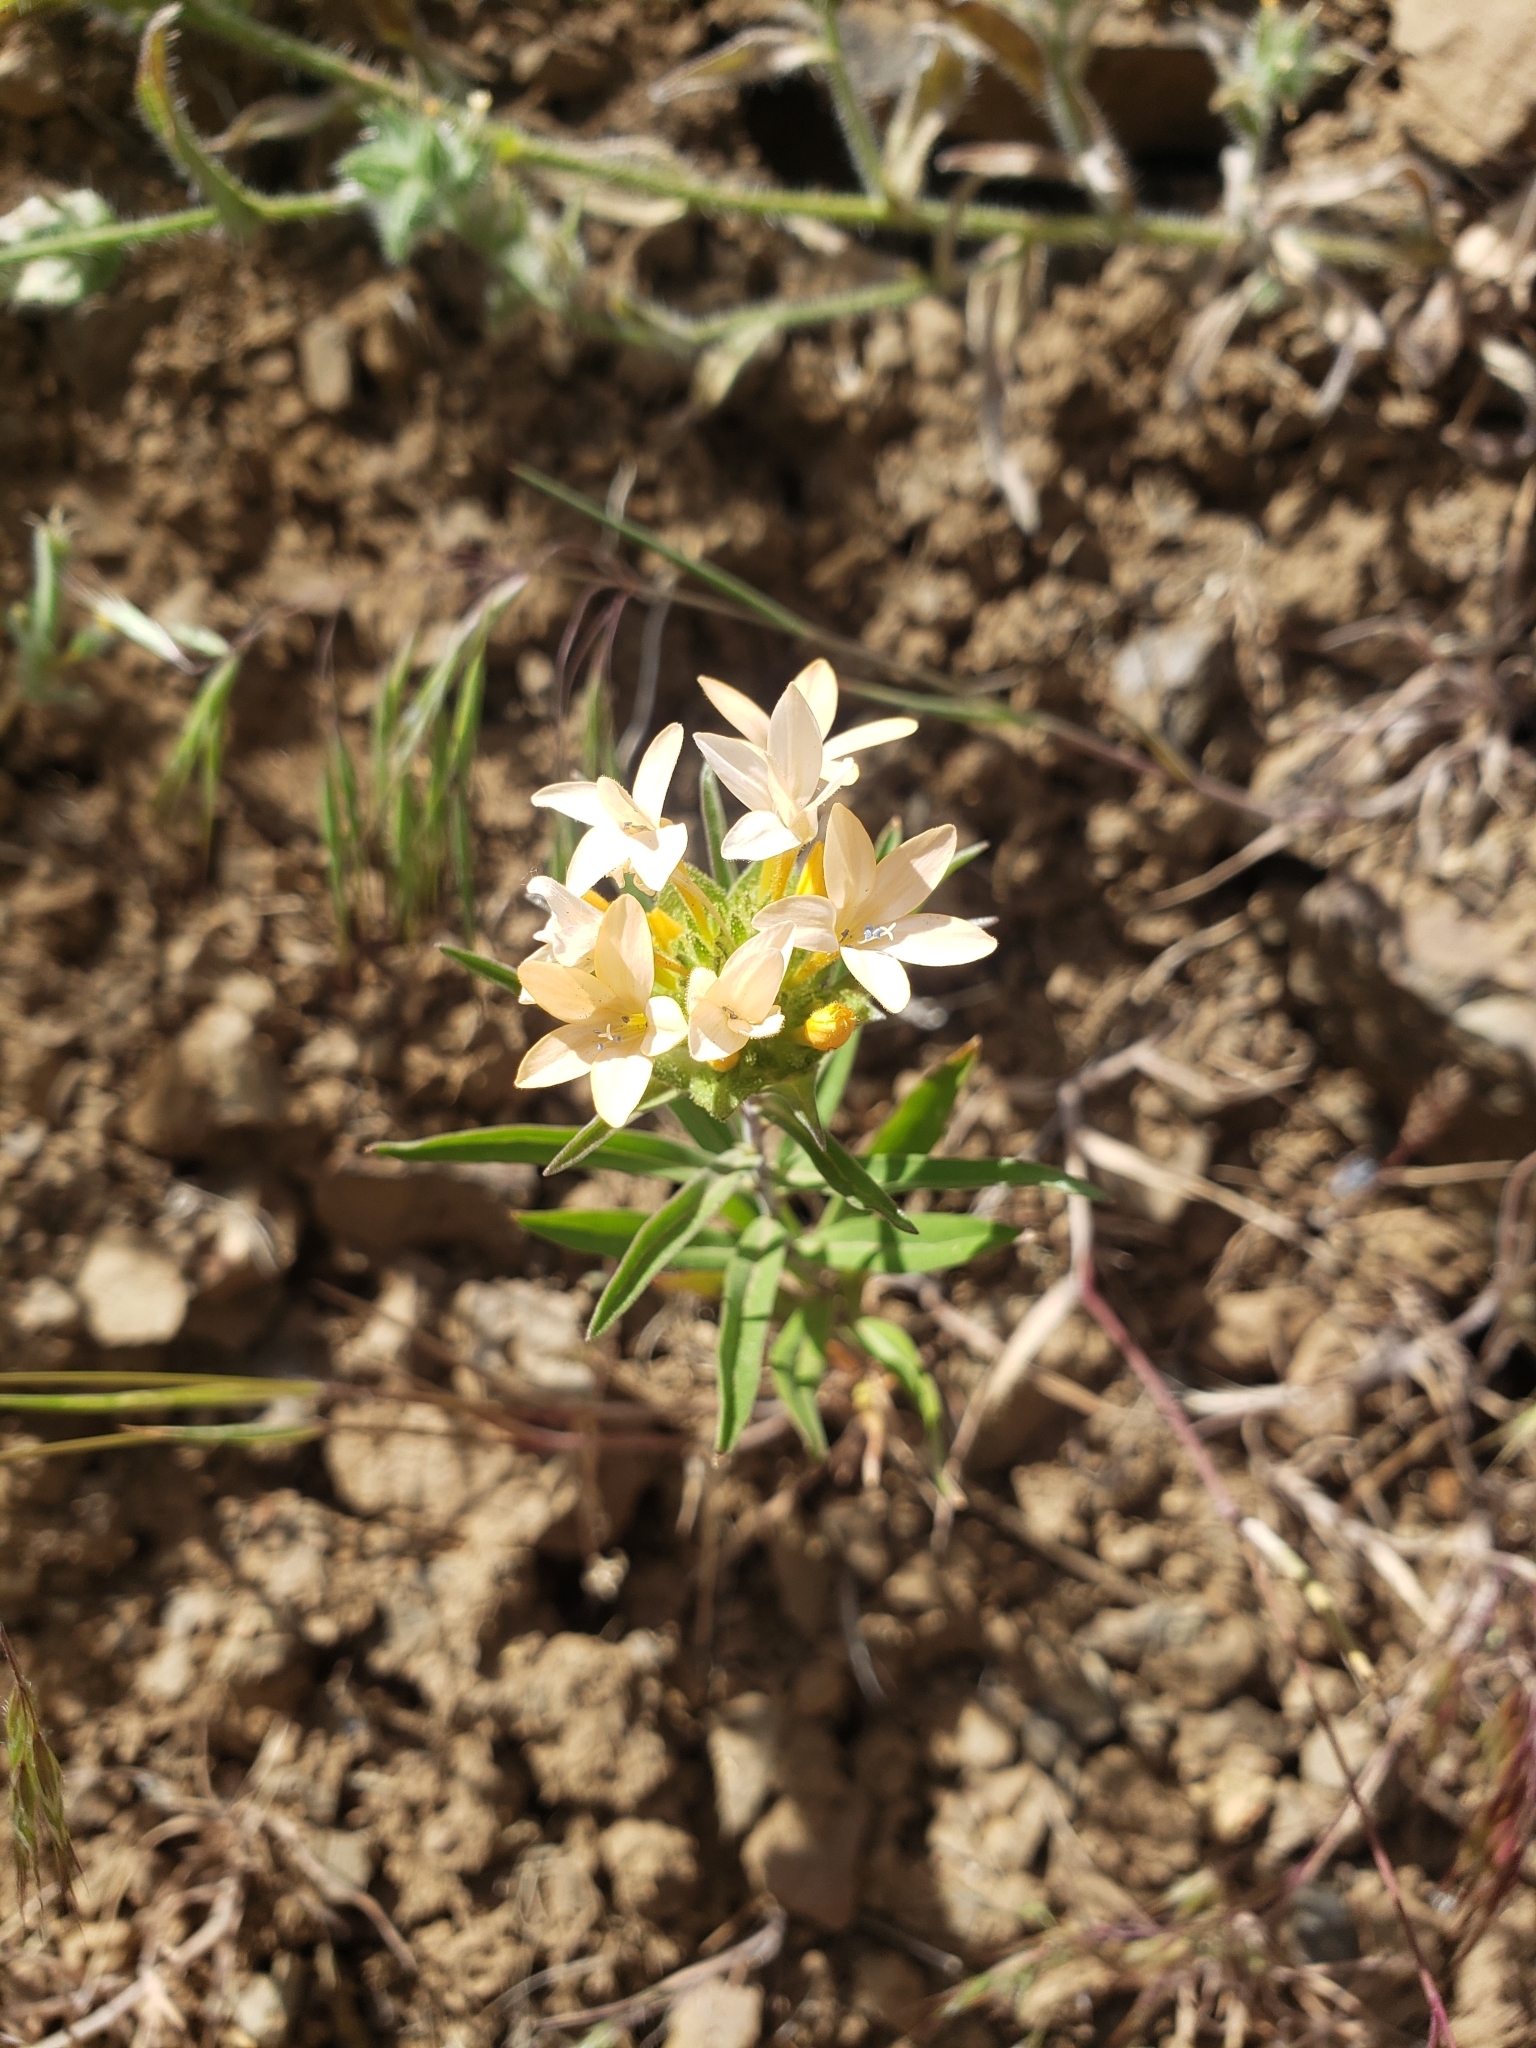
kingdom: Plantae
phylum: Tracheophyta
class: Magnoliopsida
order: Ericales
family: Polemoniaceae
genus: Collomia
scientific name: Collomia grandiflora
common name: California strawflower
